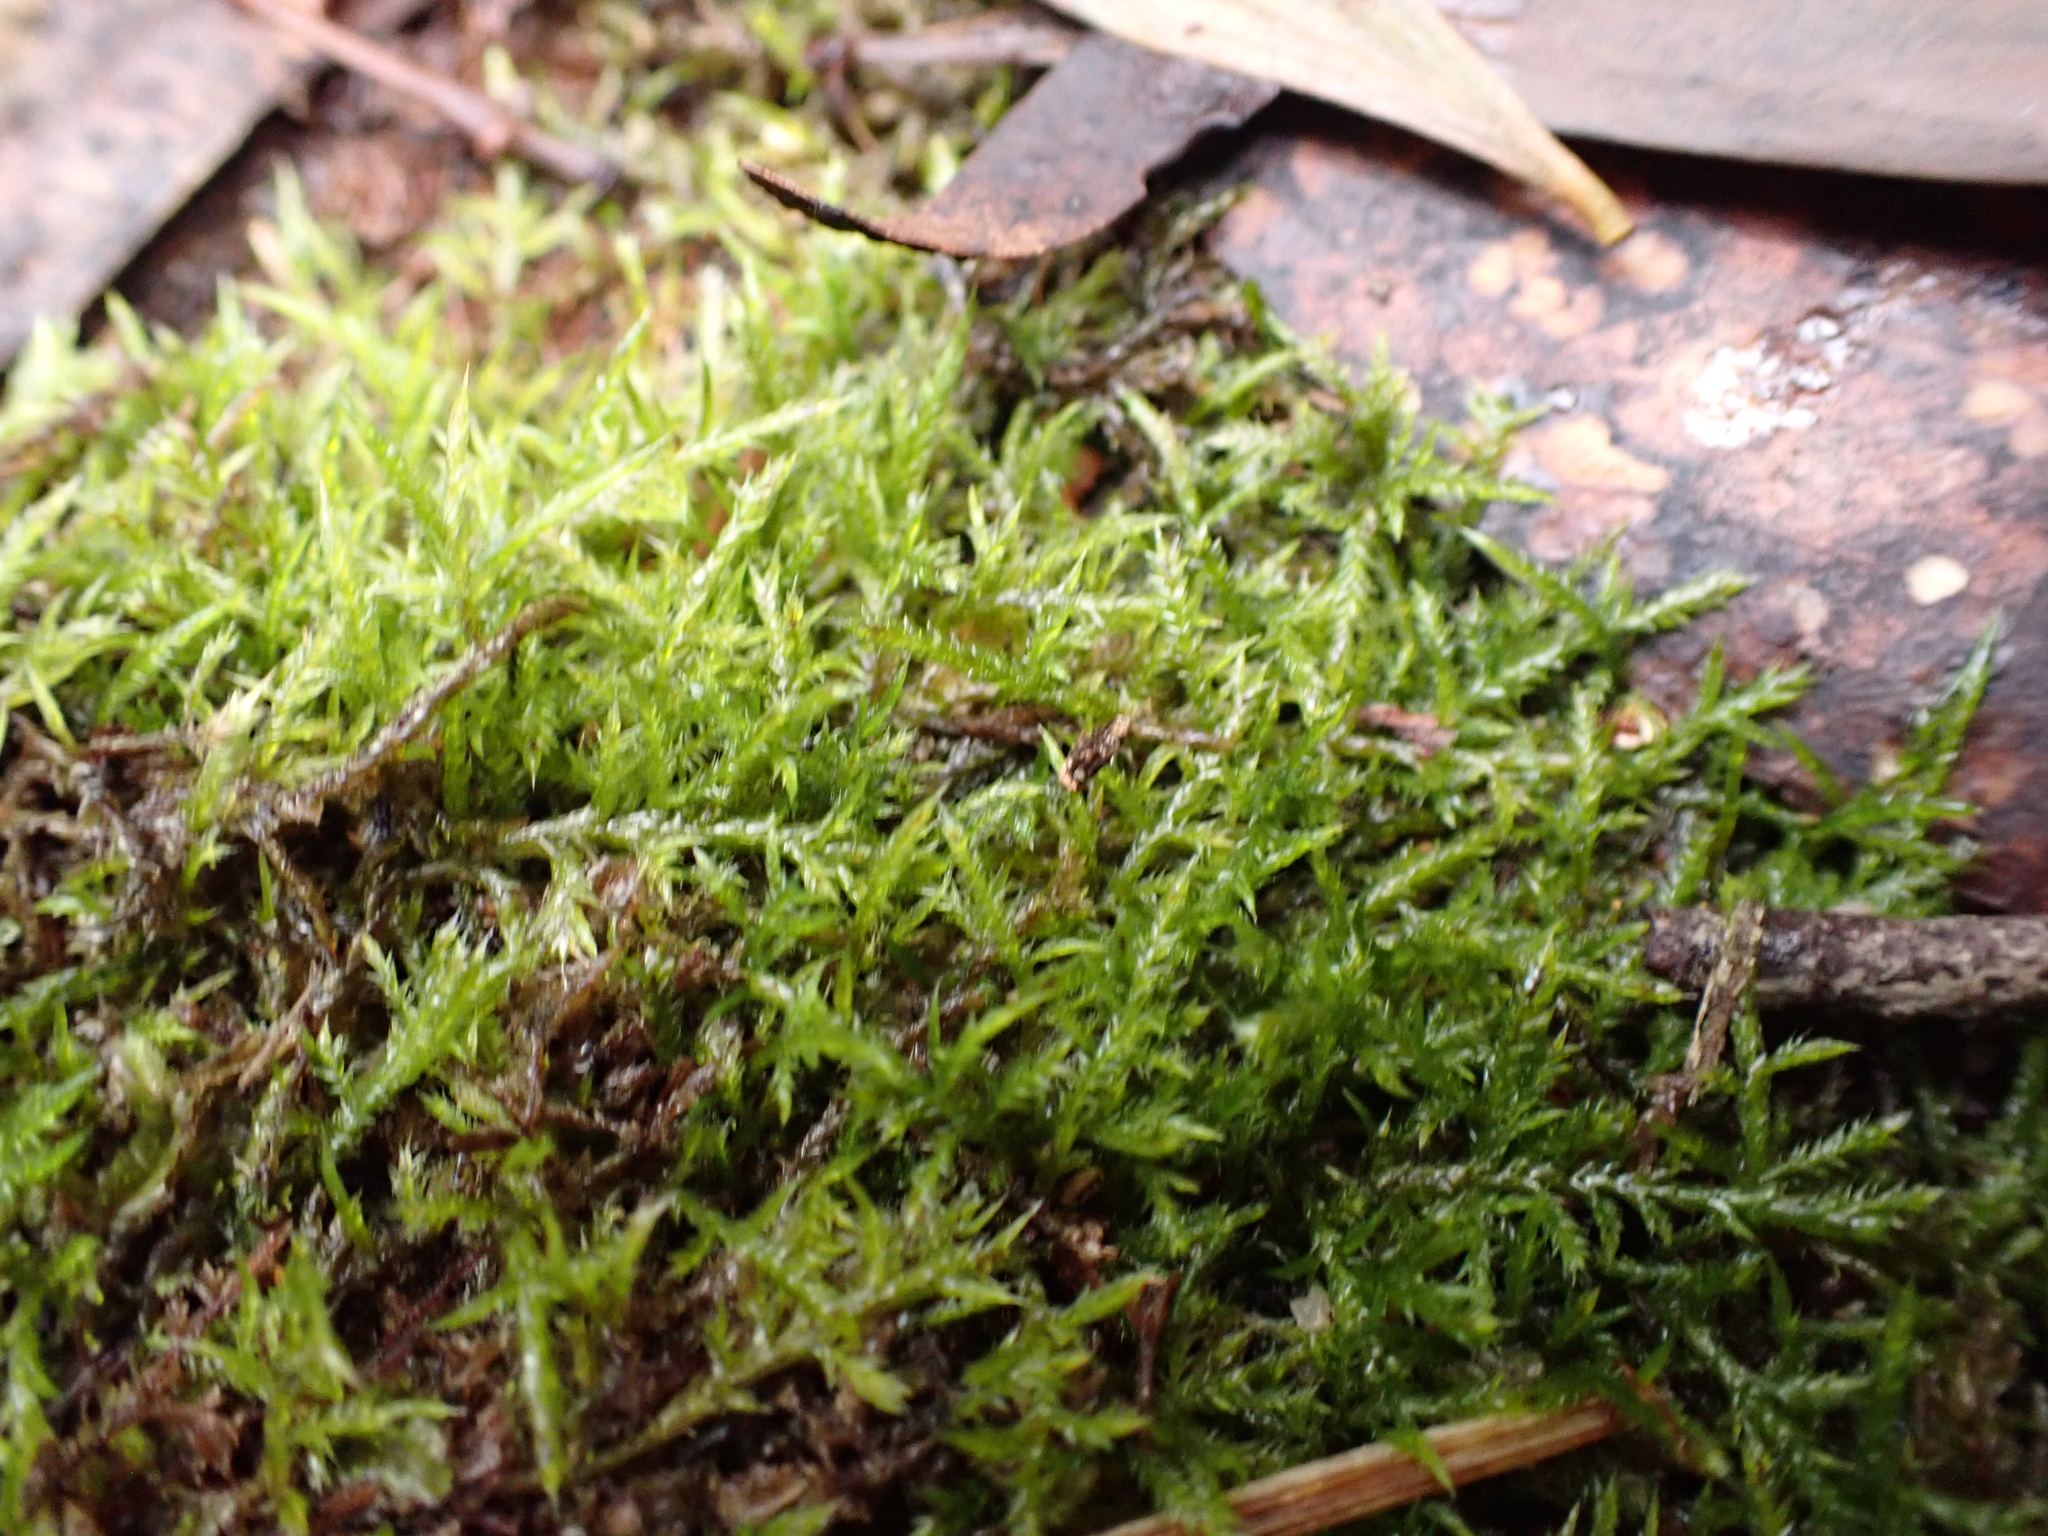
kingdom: Plantae
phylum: Bryophyta
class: Bryopsida
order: Hypnales
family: Pylaisiadelphaceae
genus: Wijkia
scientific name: Wijkia extenuata
